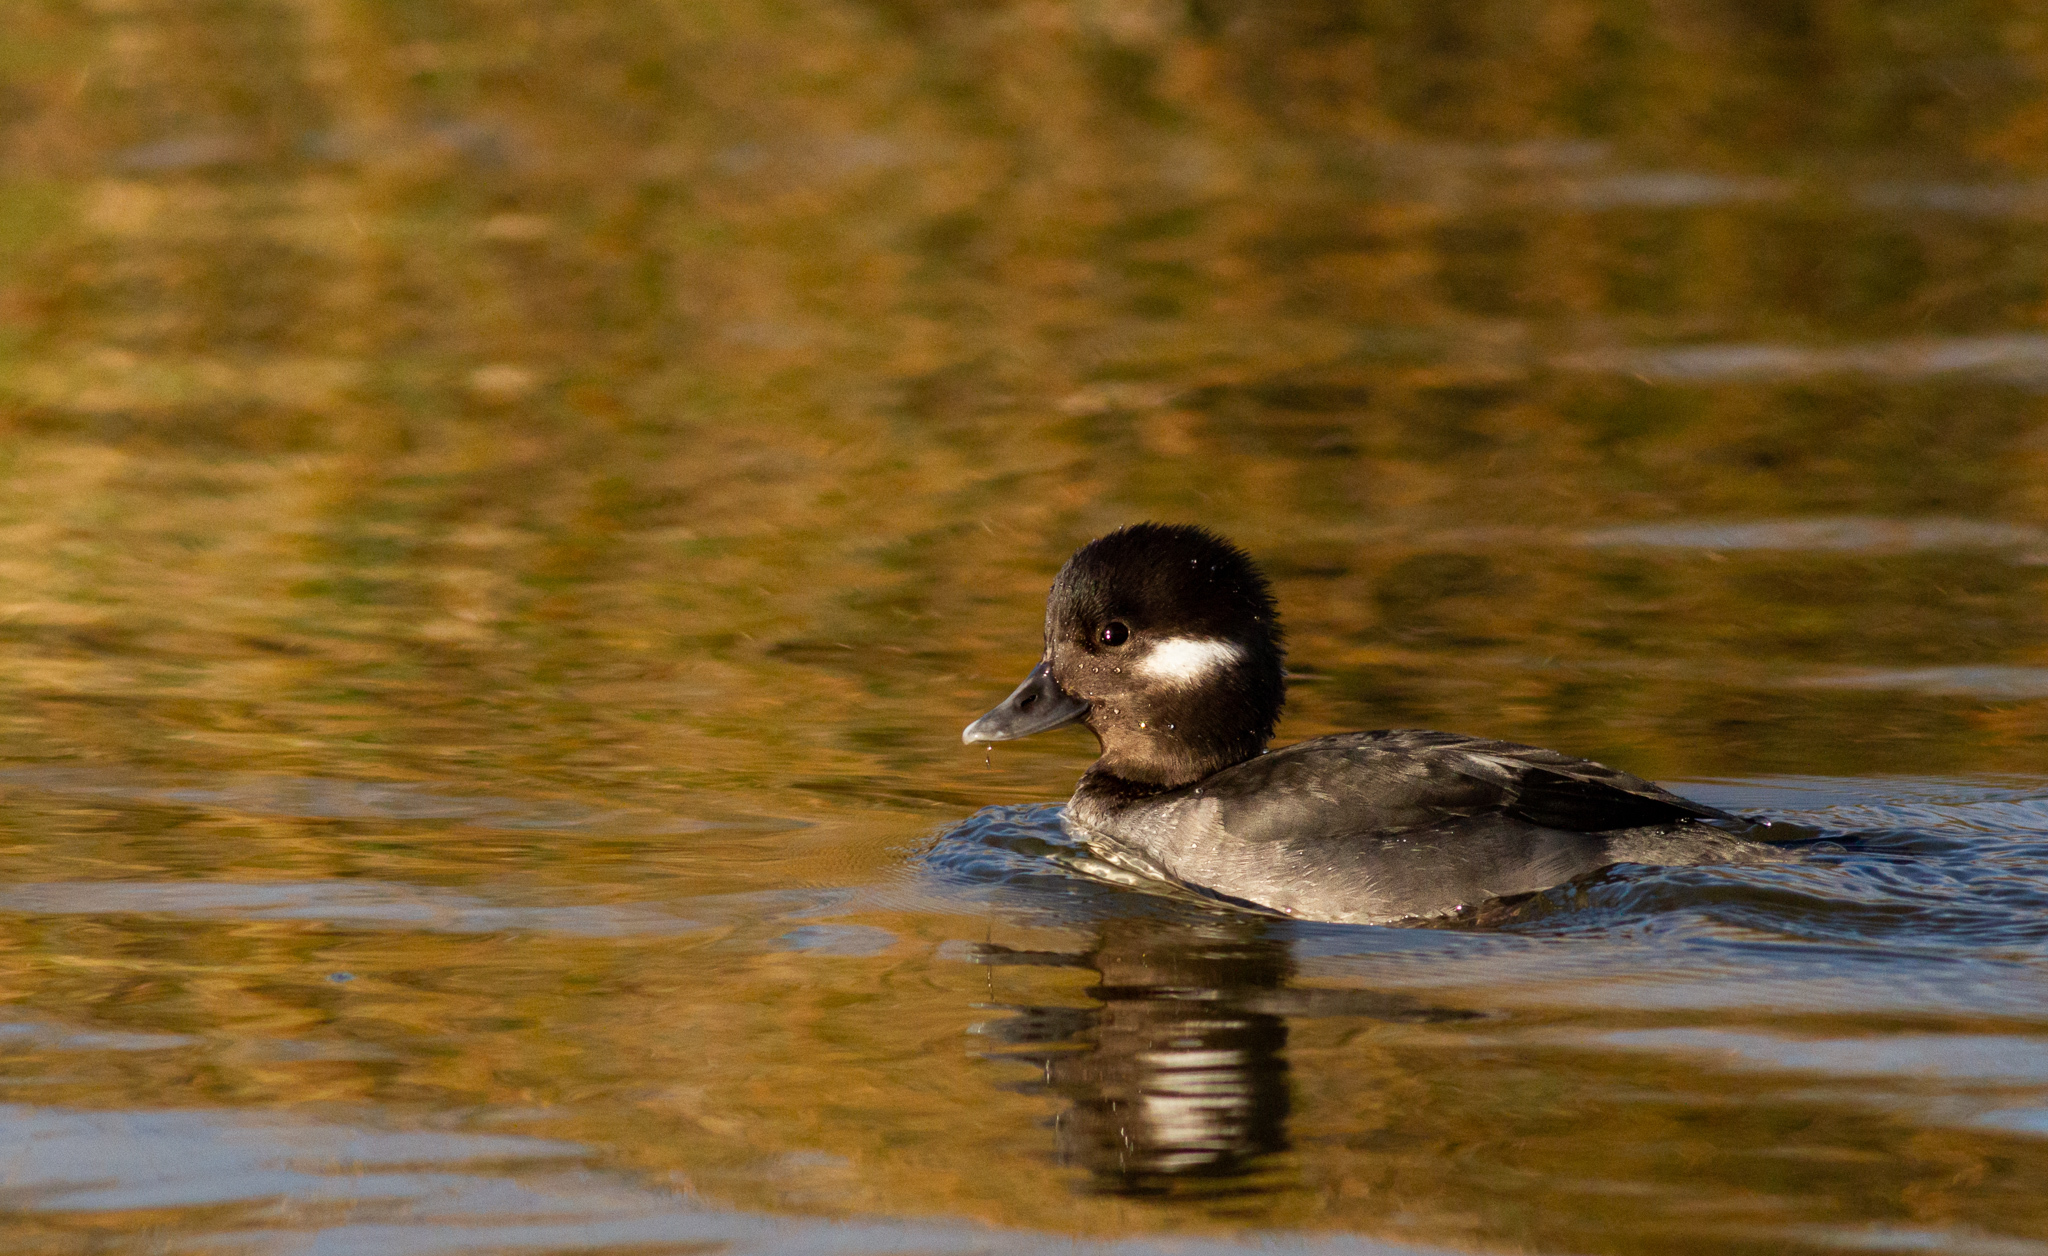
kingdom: Animalia
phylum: Chordata
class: Aves
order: Anseriformes
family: Anatidae
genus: Bucephala
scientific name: Bucephala albeola
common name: Bufflehead
